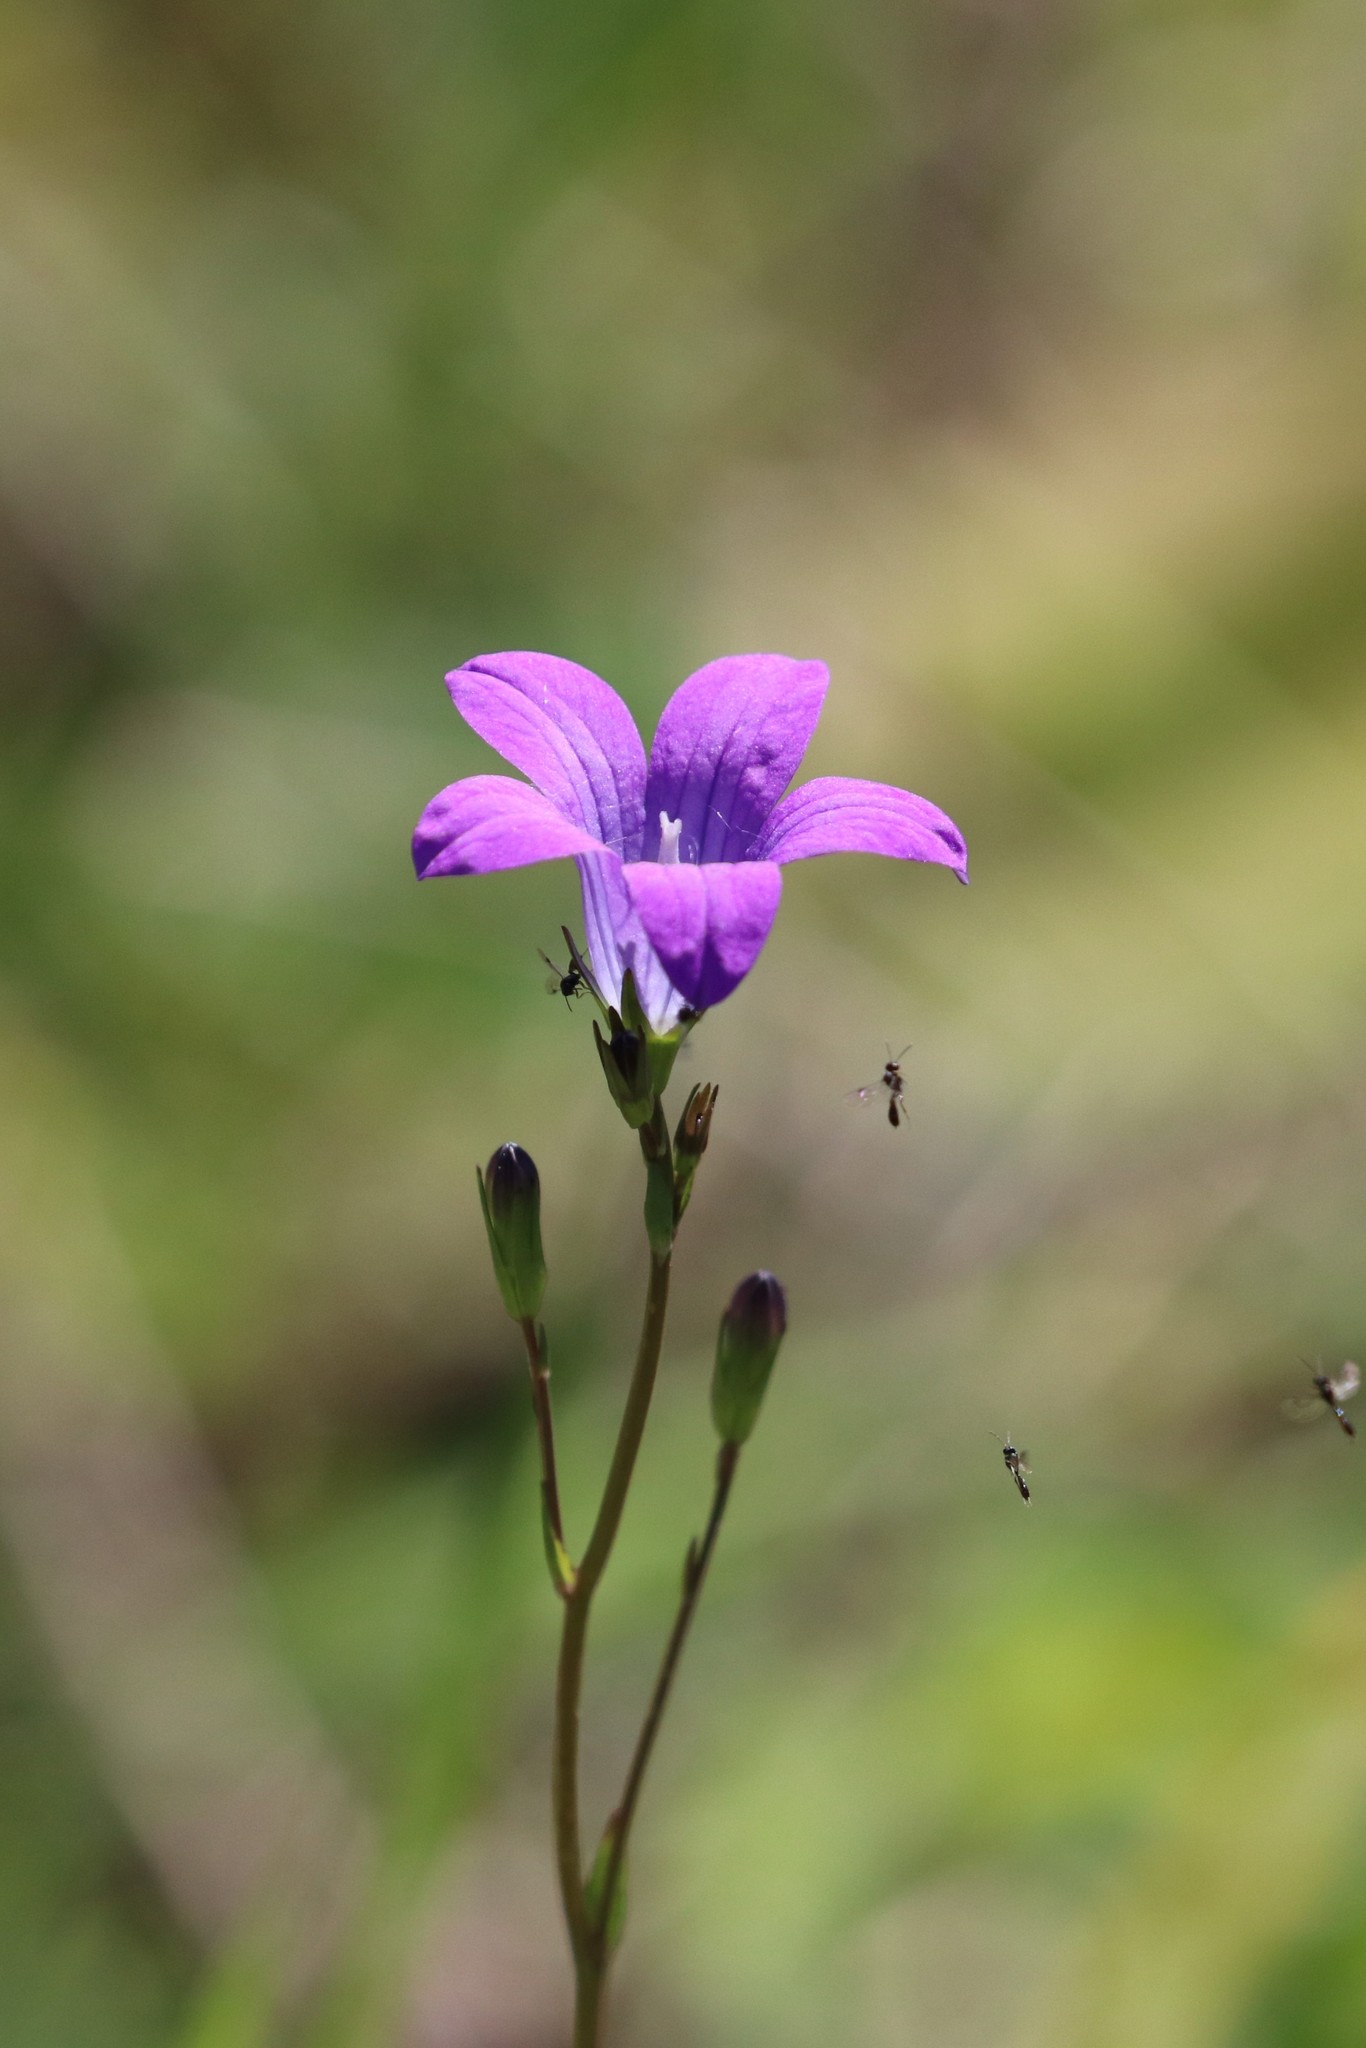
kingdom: Plantae
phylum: Tracheophyta
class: Magnoliopsida
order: Asterales
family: Campanulaceae
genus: Campanula
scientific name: Campanula patula
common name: Spreading bellflower
